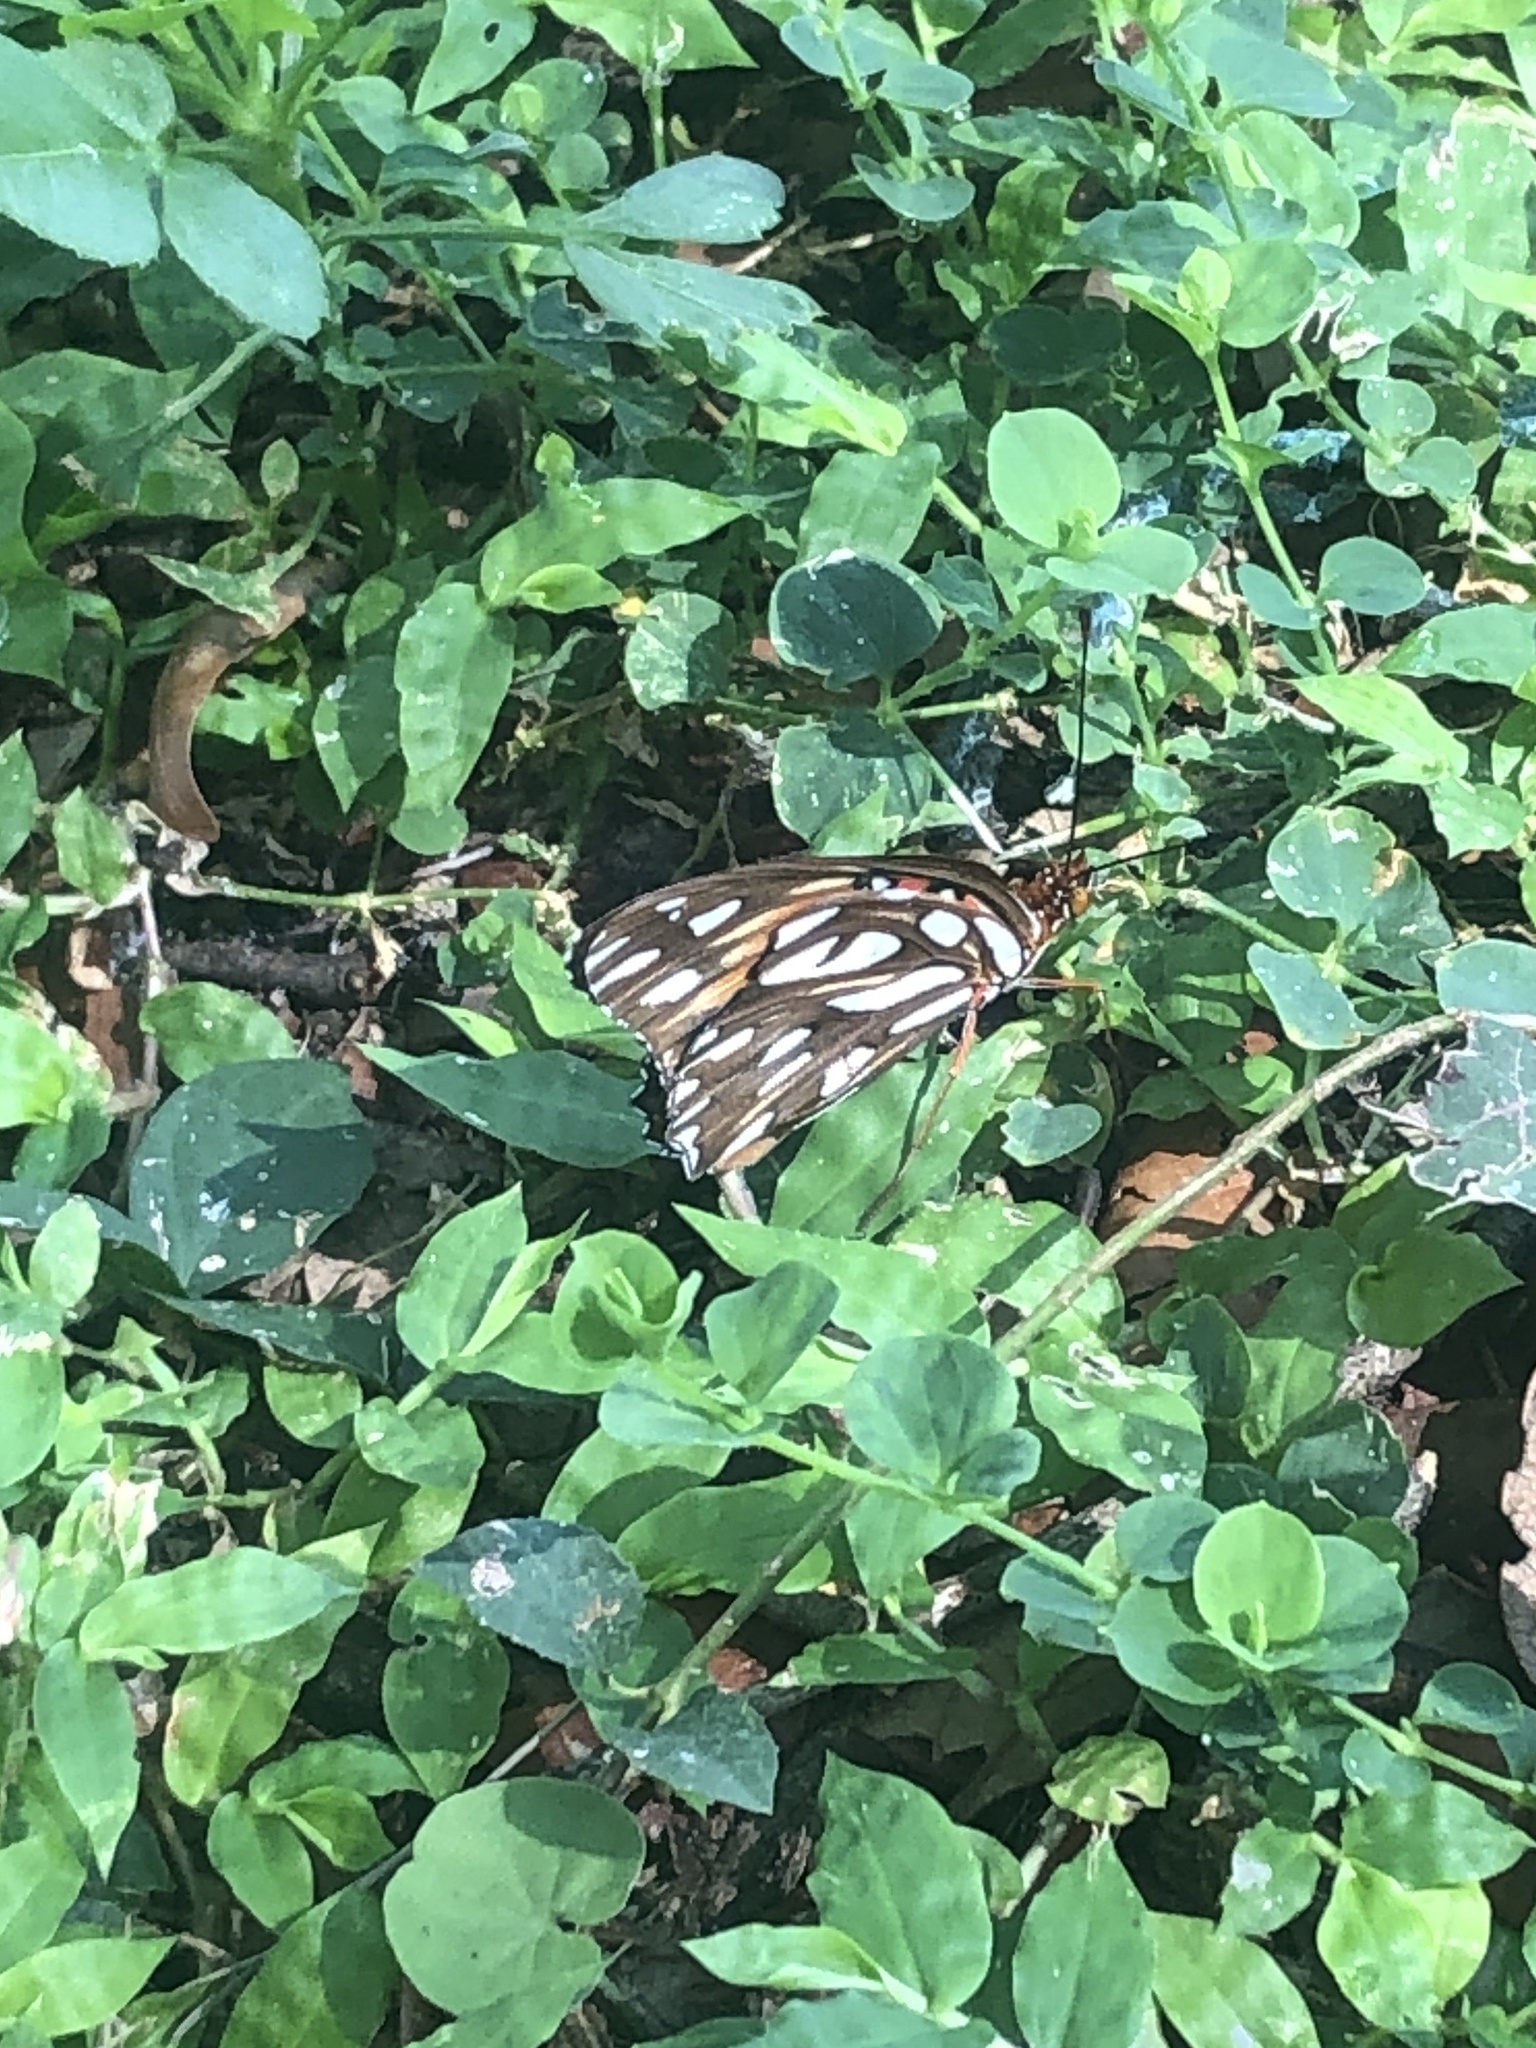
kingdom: Animalia
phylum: Arthropoda
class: Insecta
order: Lepidoptera
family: Nymphalidae
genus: Dione
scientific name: Dione vanillae
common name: Gulf fritillary
